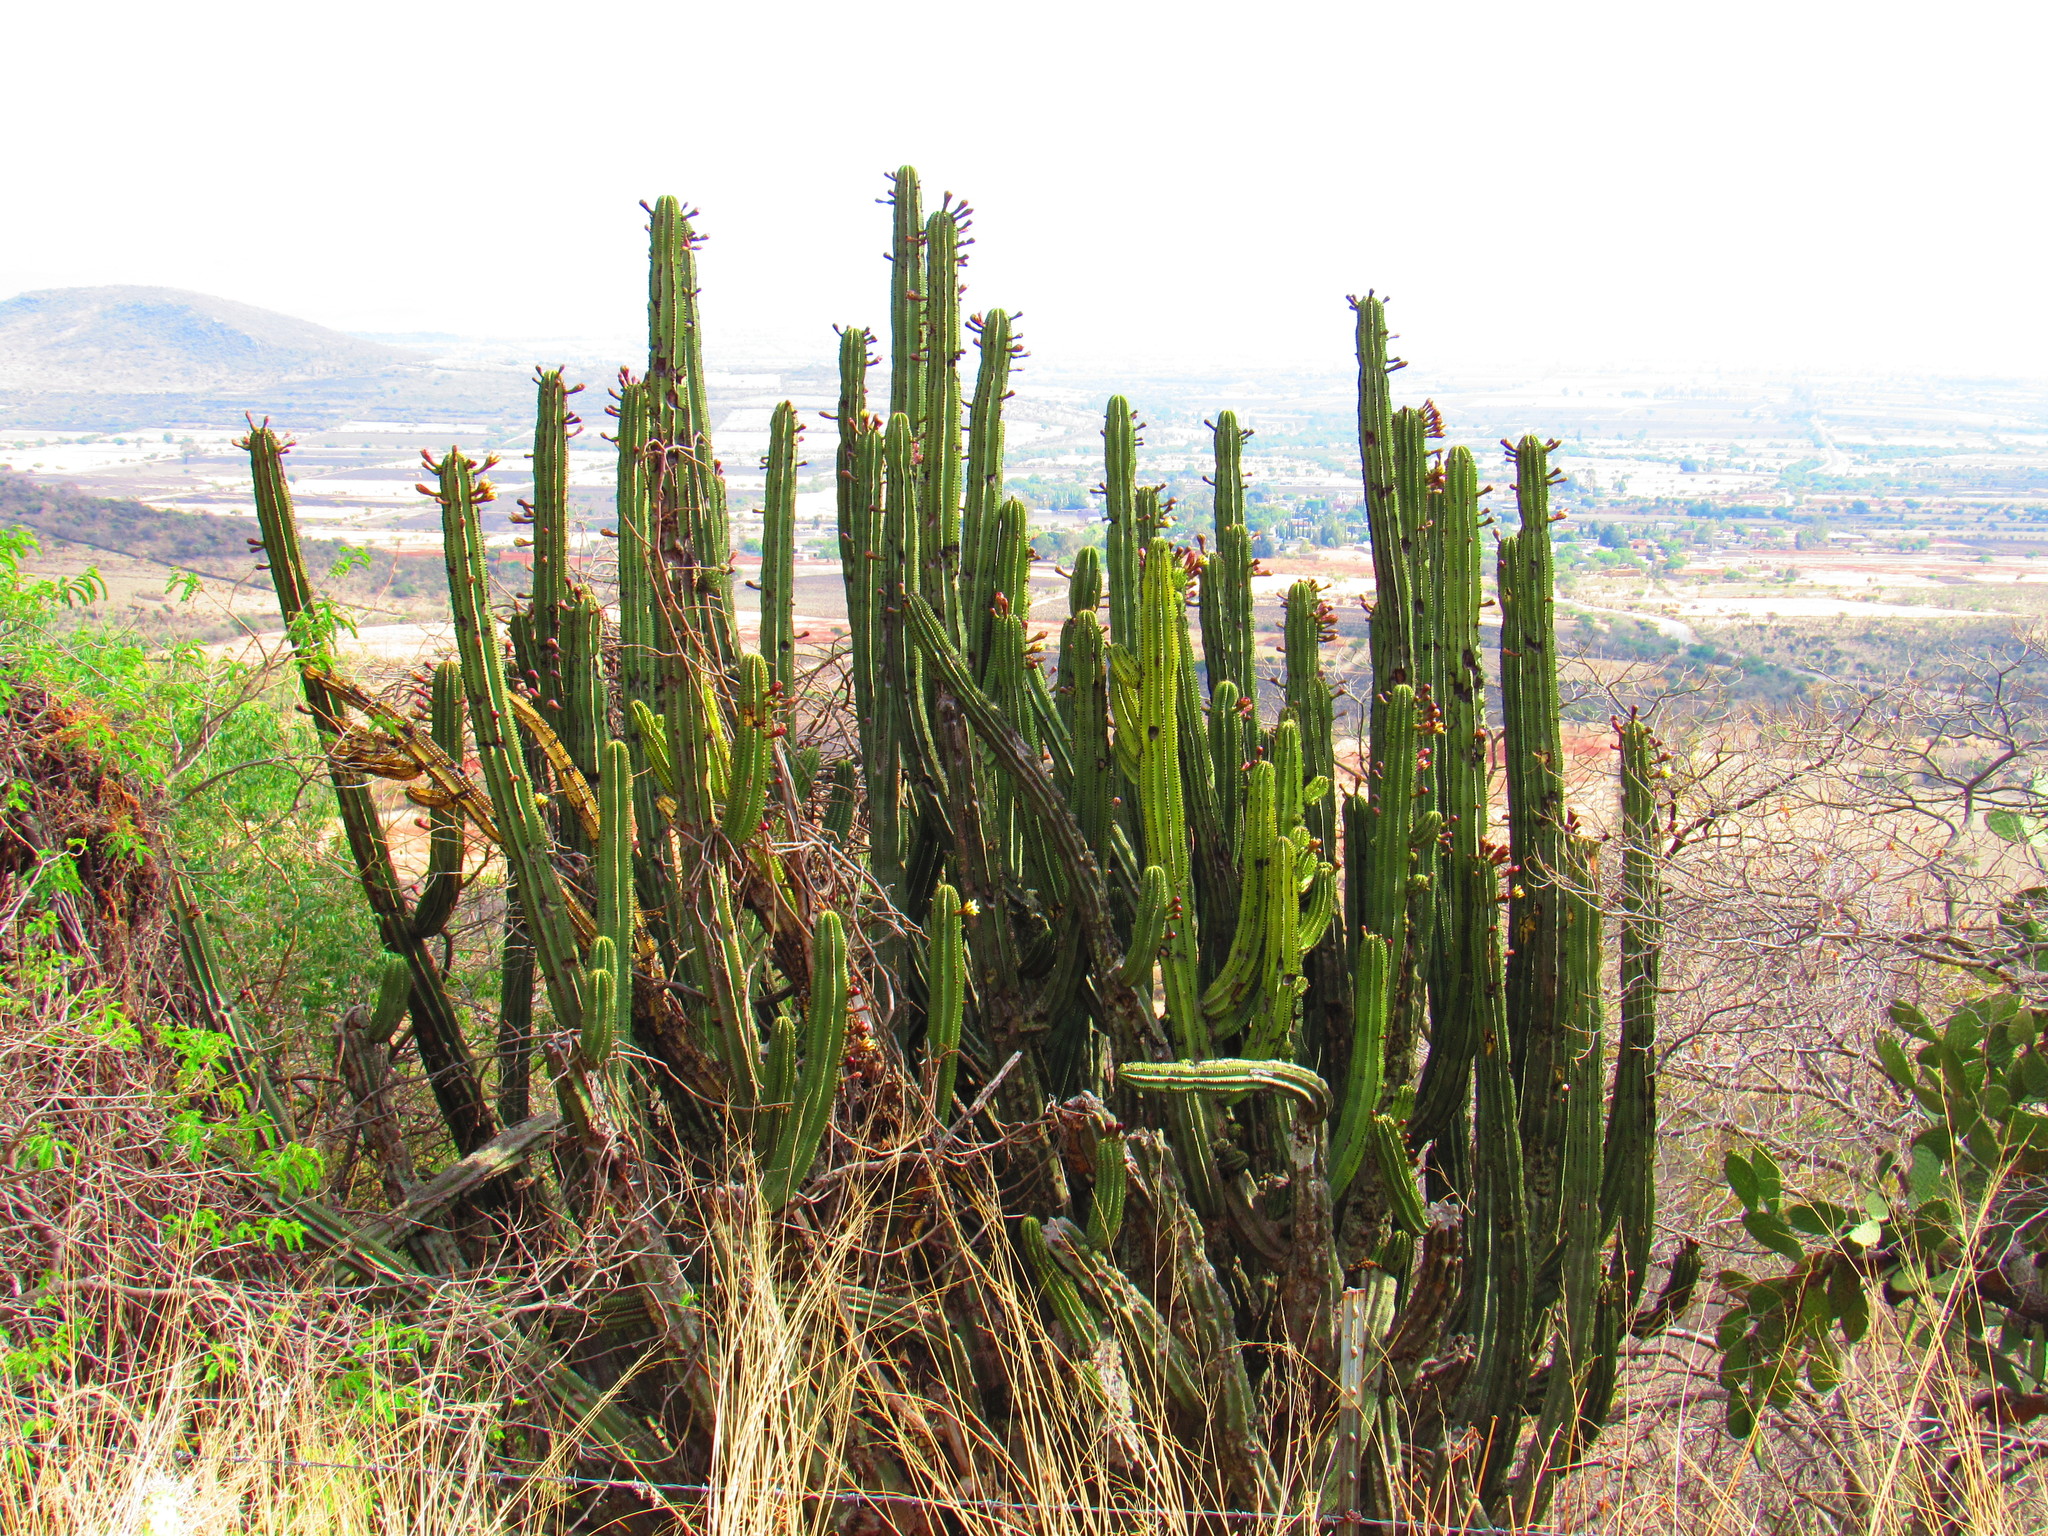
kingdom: Plantae
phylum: Tracheophyta
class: Magnoliopsida
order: Caryophyllales
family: Cactaceae
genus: Stenocereus
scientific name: Stenocereus queretaroensis
